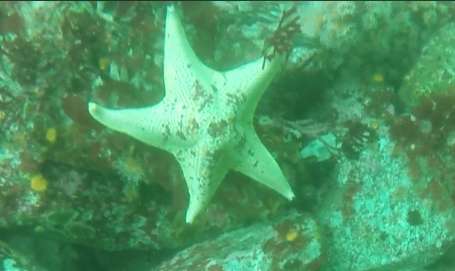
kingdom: Animalia
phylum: Echinodermata
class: Asteroidea
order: Valvatida
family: Asterinidae
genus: Patiria
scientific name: Patiria miniata
